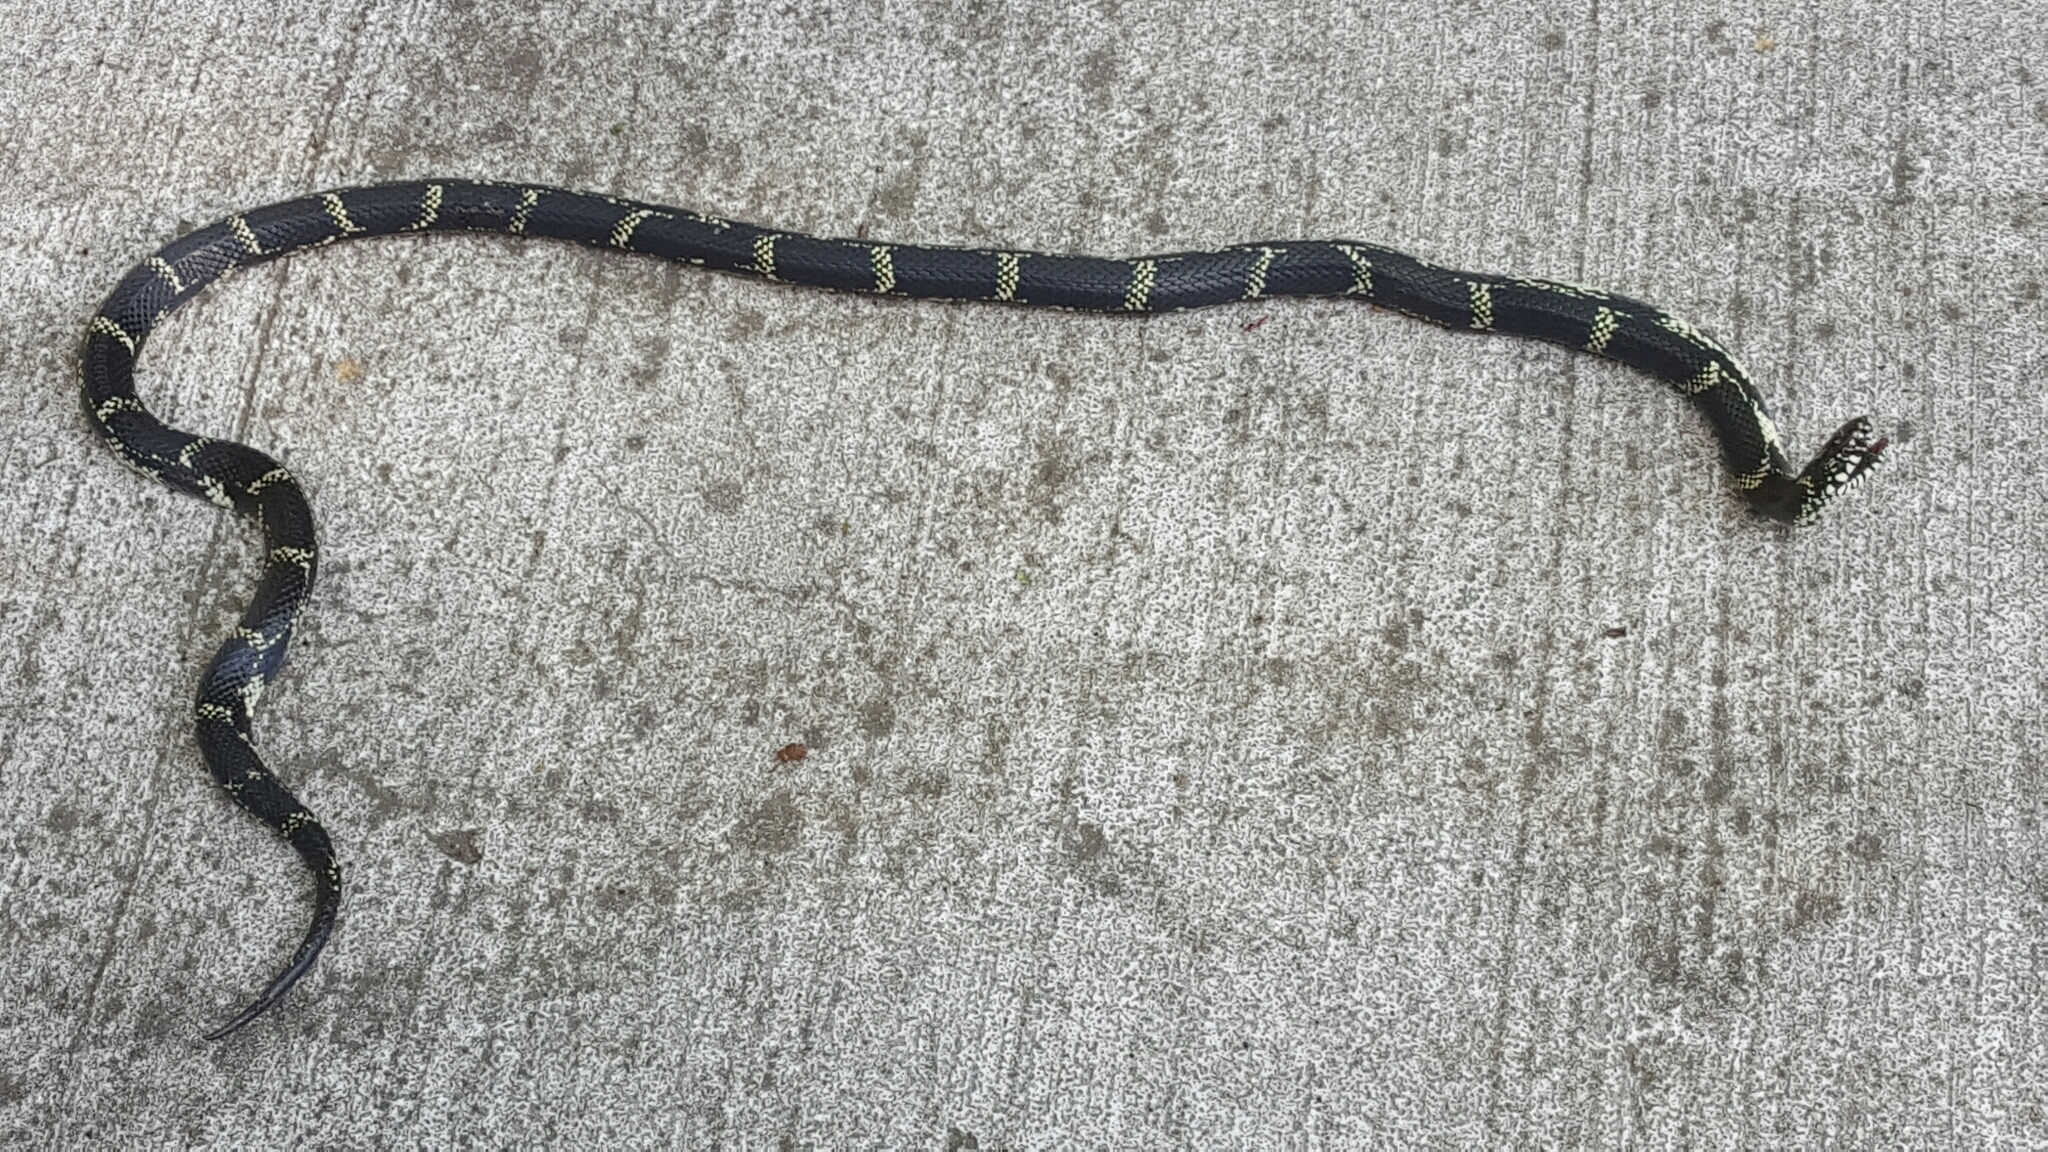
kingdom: Animalia
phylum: Chordata
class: Squamata
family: Colubridae
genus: Lampropeltis
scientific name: Lampropeltis getula
